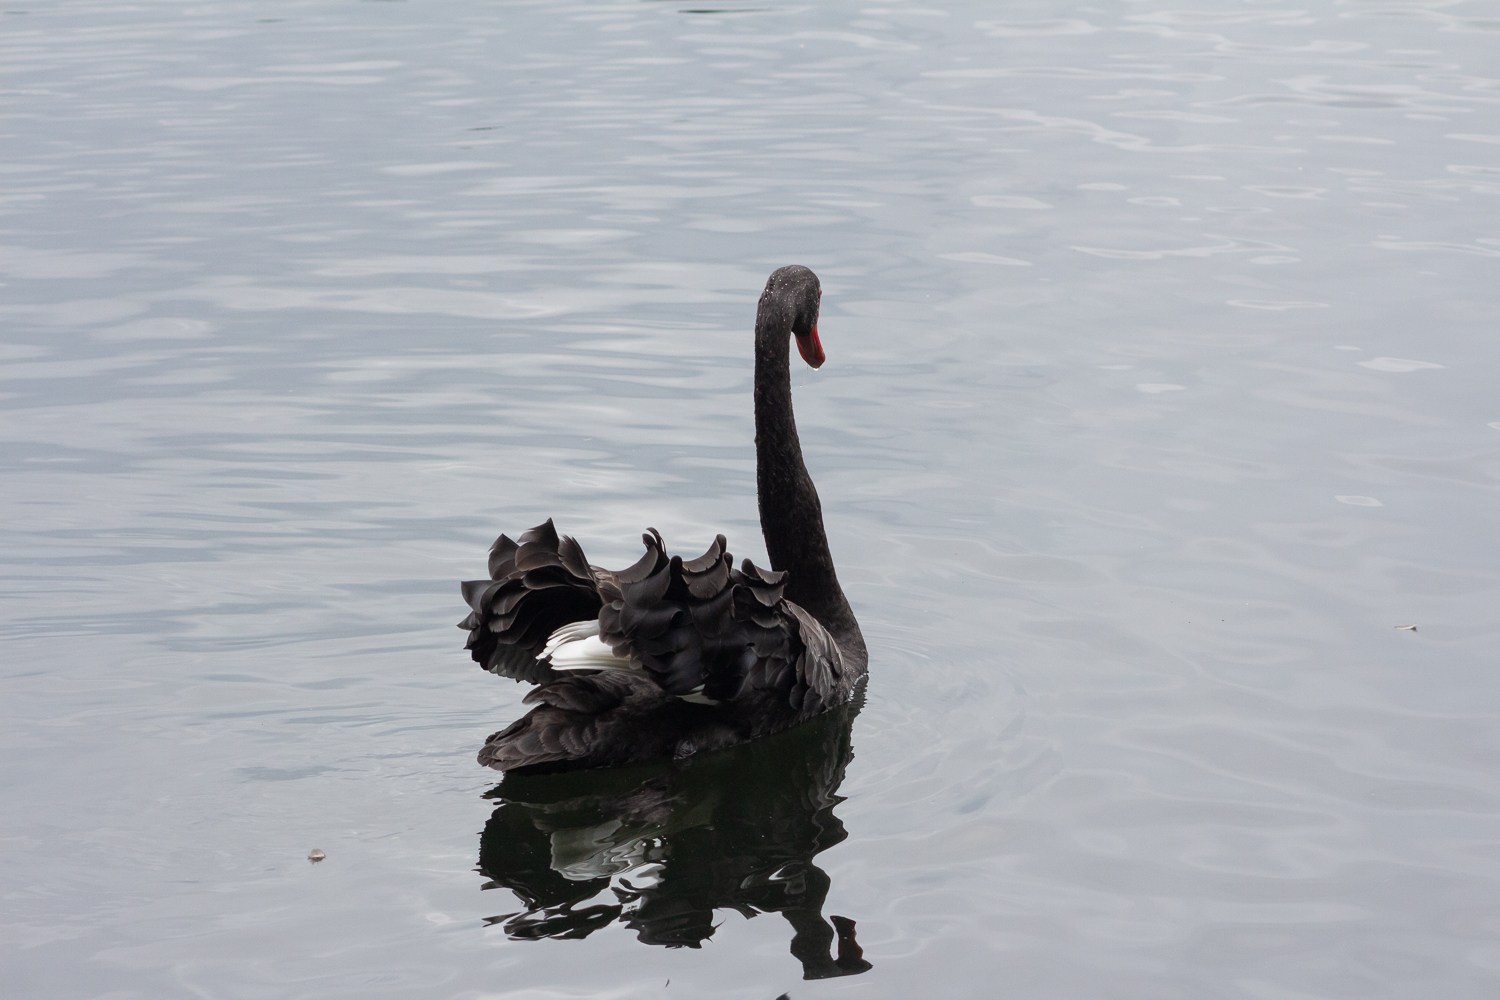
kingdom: Animalia
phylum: Chordata
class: Aves
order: Anseriformes
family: Anatidae
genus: Cygnus
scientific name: Cygnus atratus
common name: Black swan
